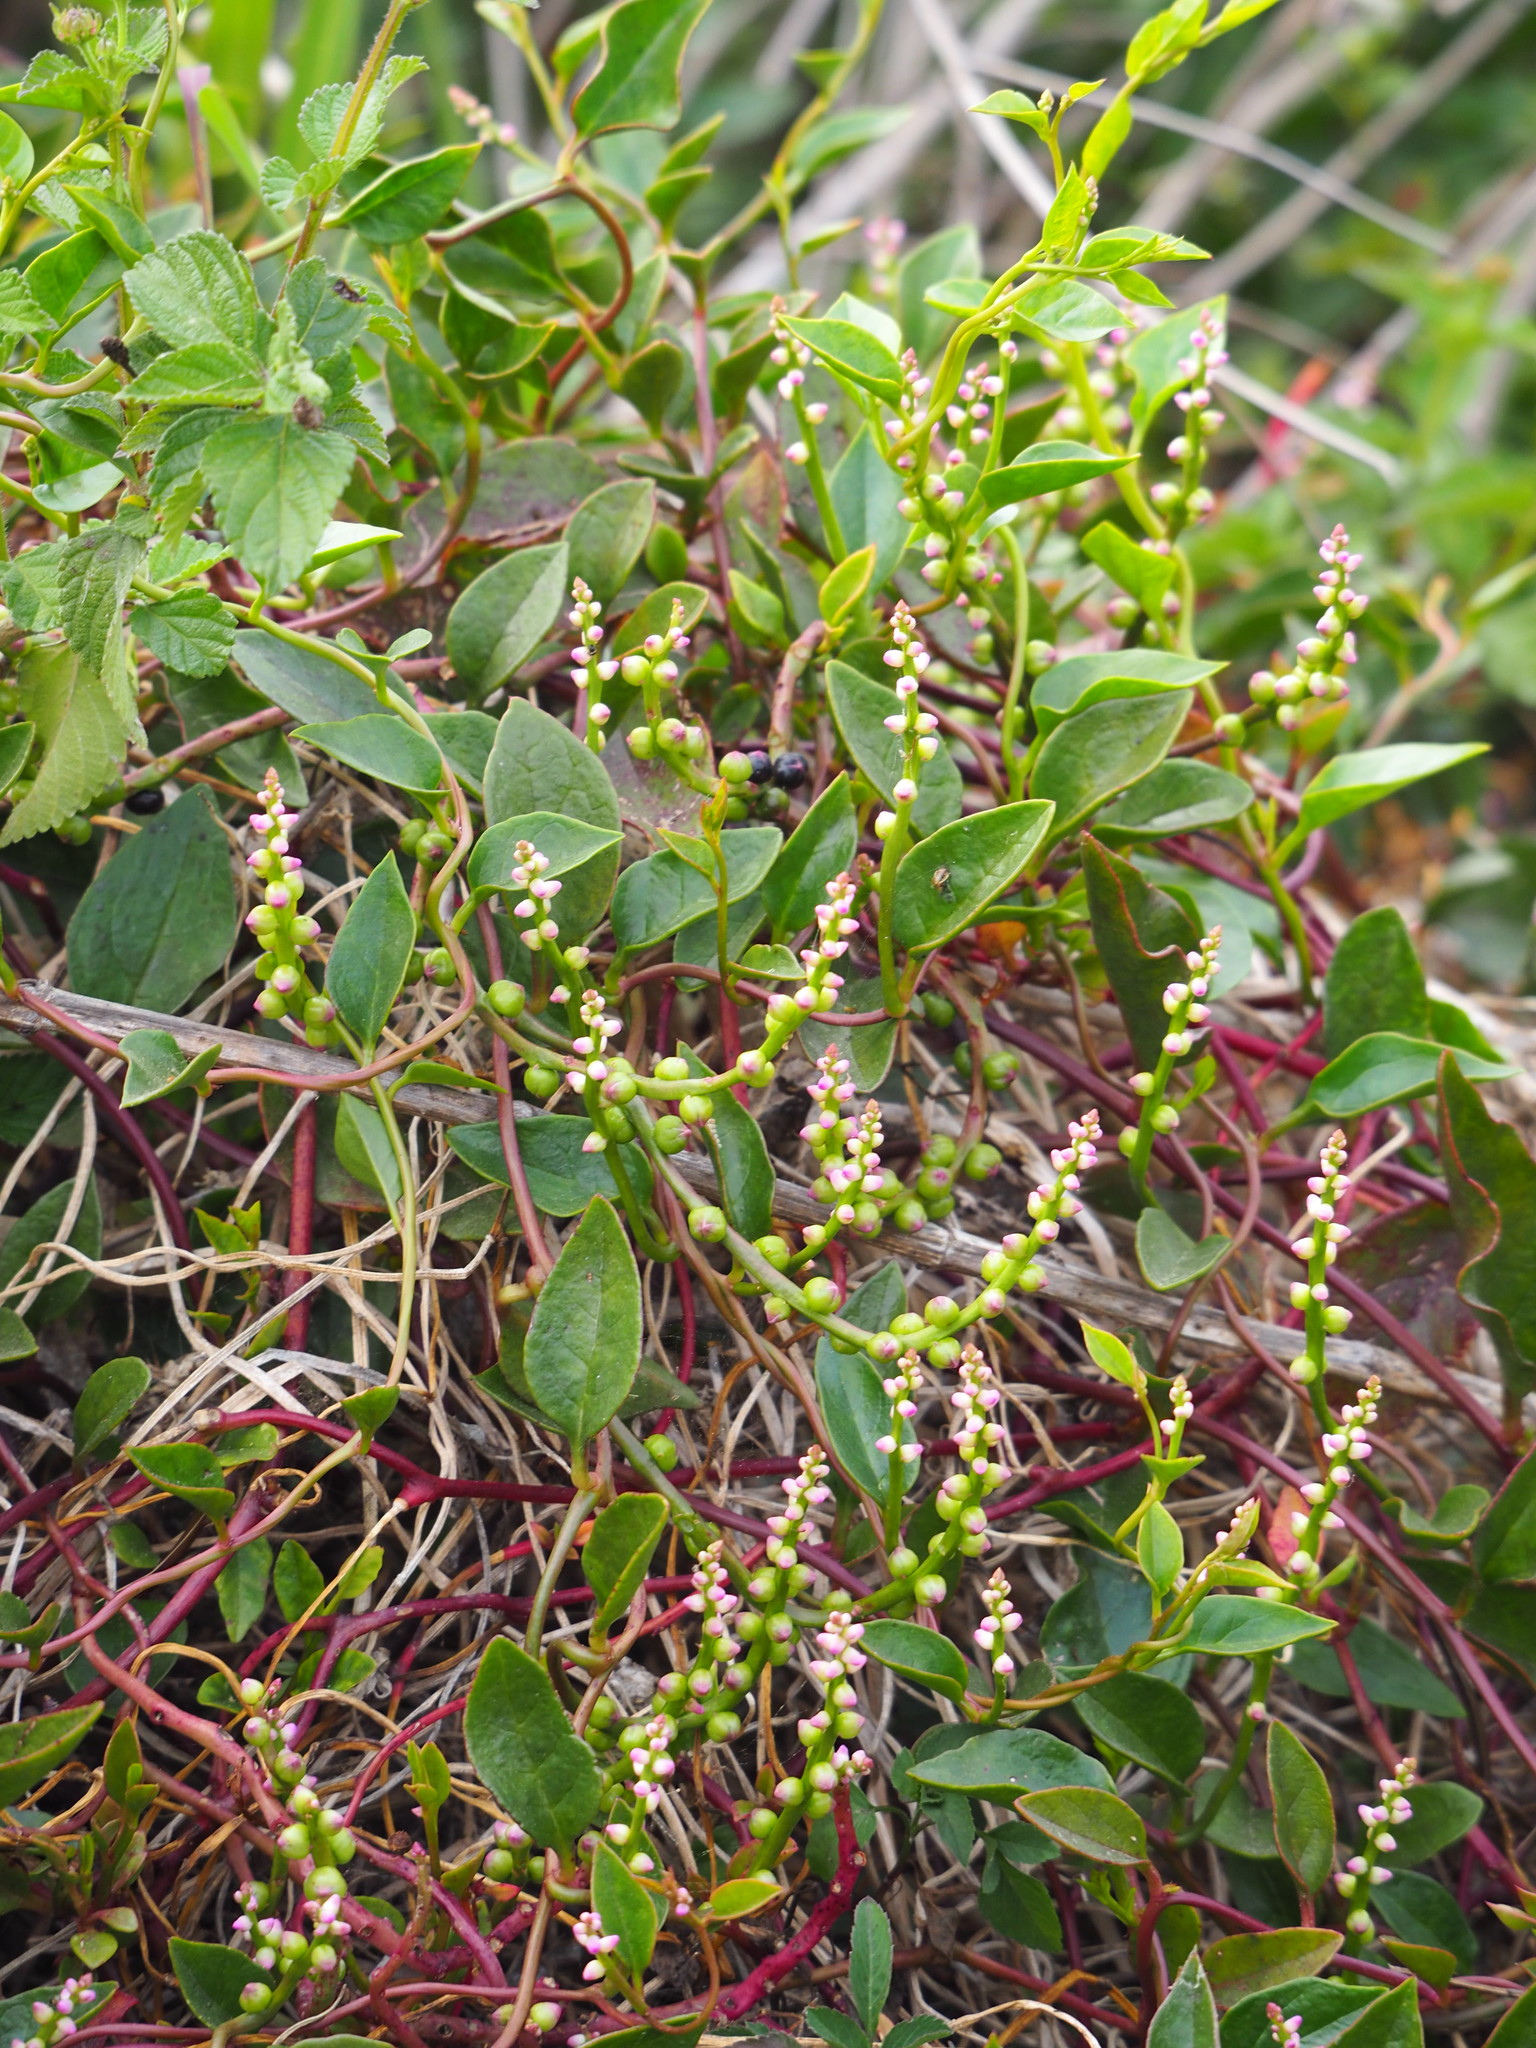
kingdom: Plantae
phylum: Tracheophyta
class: Magnoliopsida
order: Caryophyllales
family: Basellaceae
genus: Basella
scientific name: Basella alba
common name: Indian spinach
